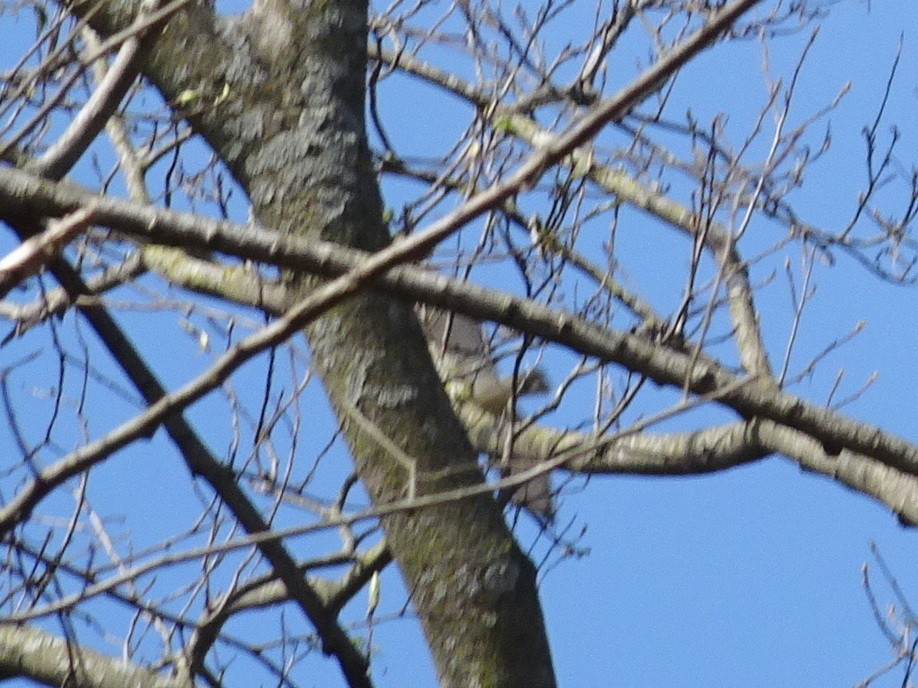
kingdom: Animalia
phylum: Chordata
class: Aves
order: Accipitriformes
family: Accipitridae
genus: Buteo
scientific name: Buteo platypterus
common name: Broad-winged hawk
